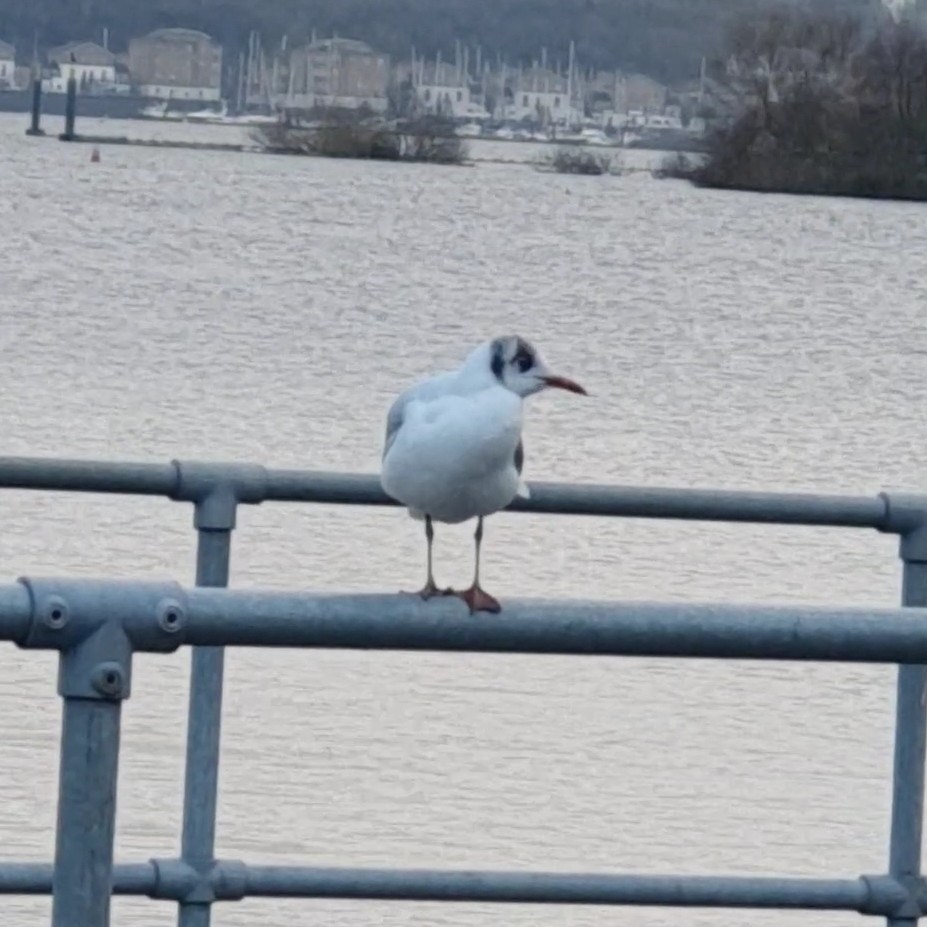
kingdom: Animalia
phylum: Chordata
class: Aves
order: Charadriiformes
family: Laridae
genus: Chroicocephalus
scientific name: Chroicocephalus ridibundus
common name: Black-headed gull
